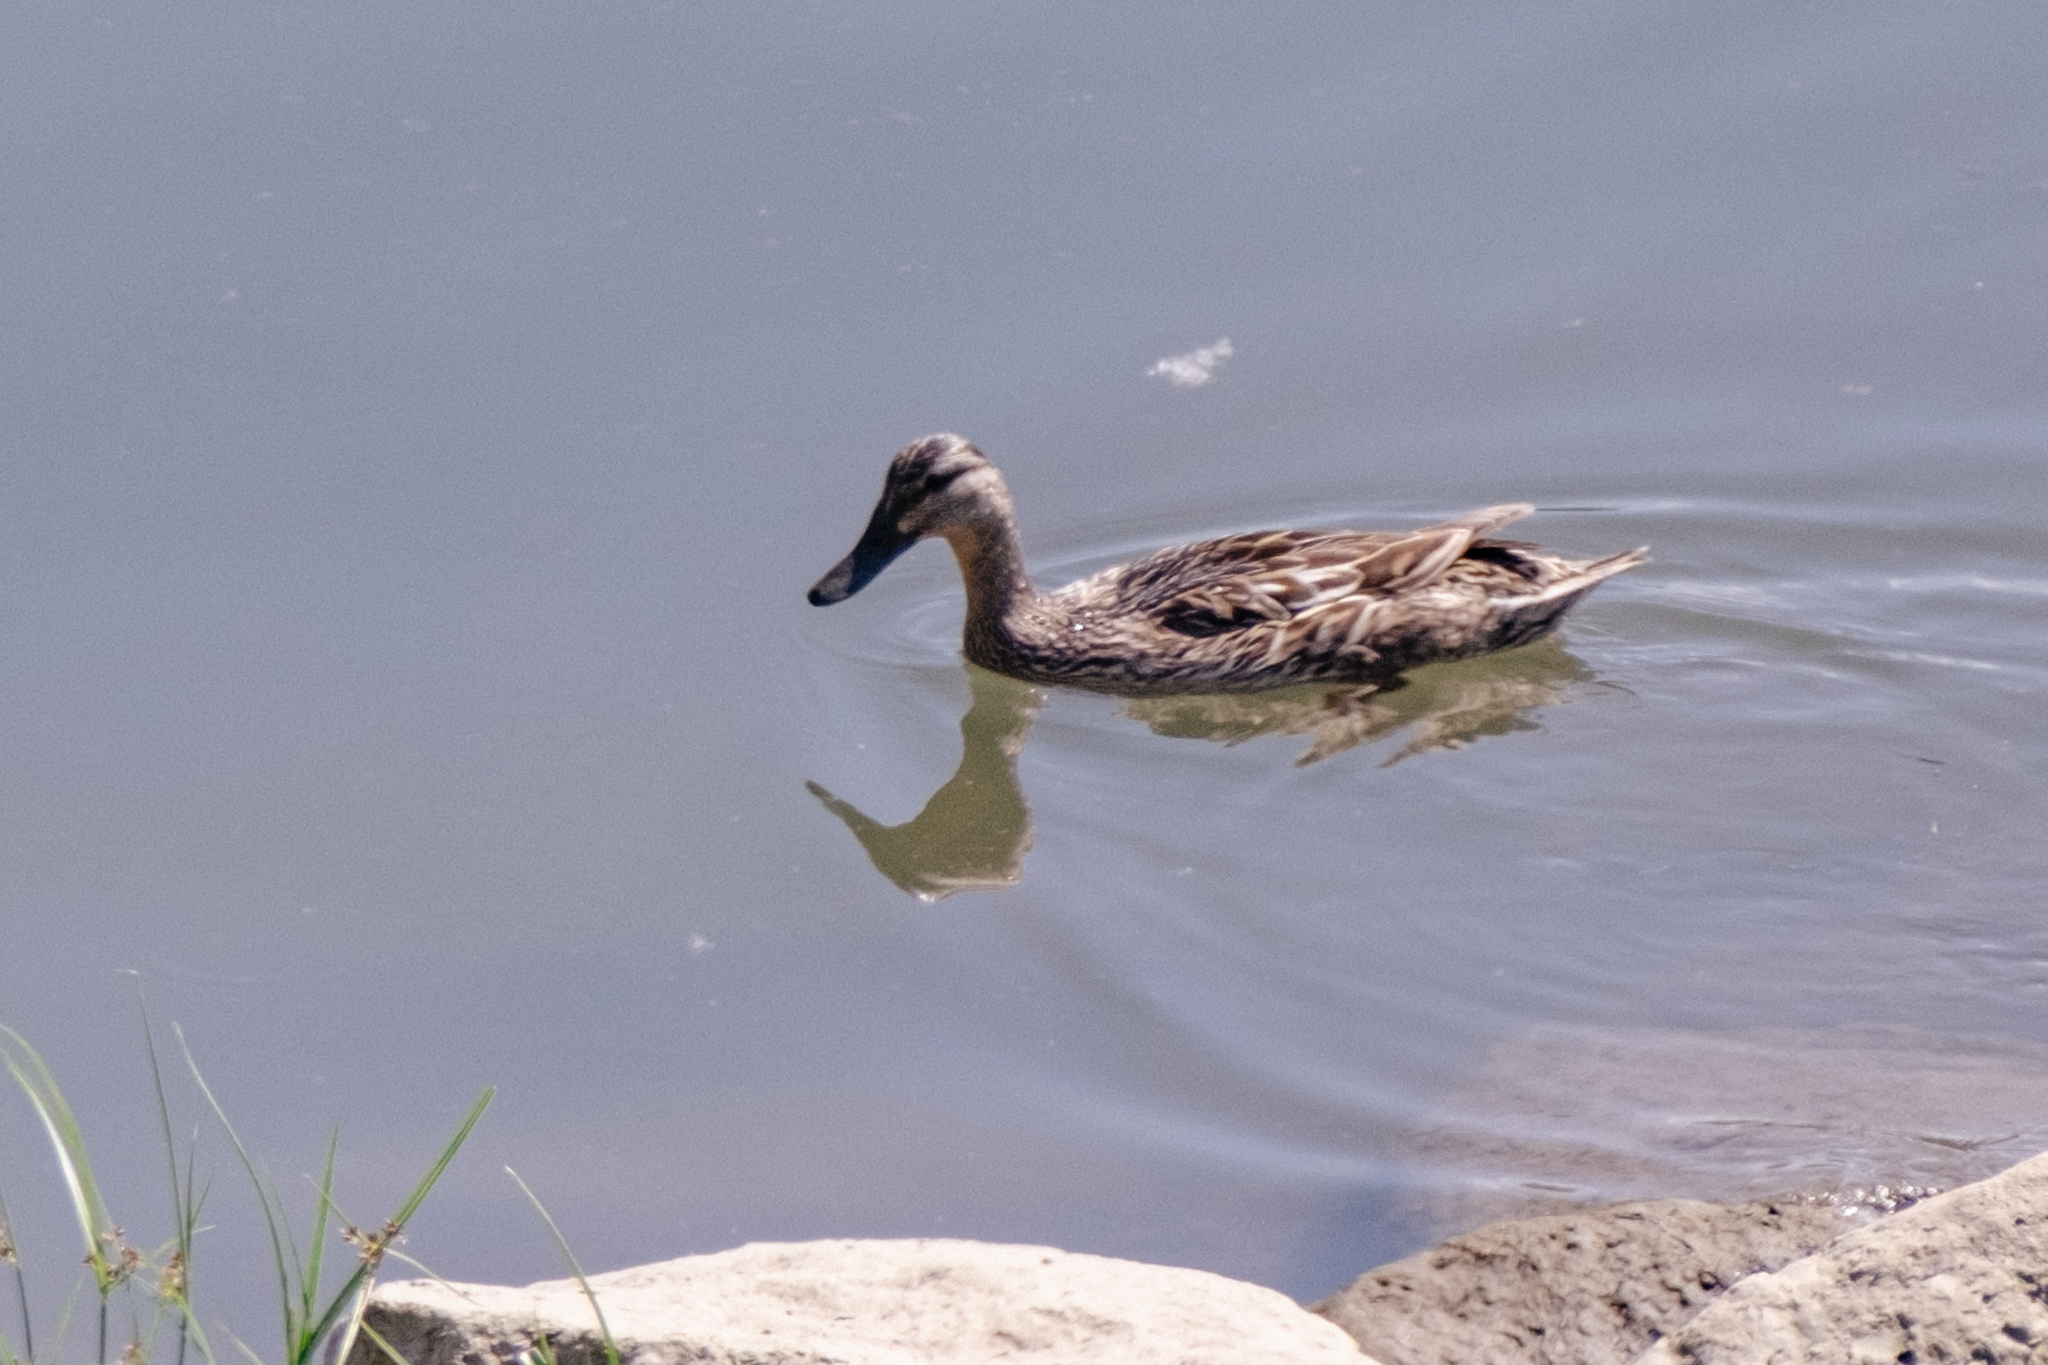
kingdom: Animalia
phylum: Chordata
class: Aves
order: Anseriformes
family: Anatidae
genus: Anas
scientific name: Anas platyrhynchos
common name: Mallard
